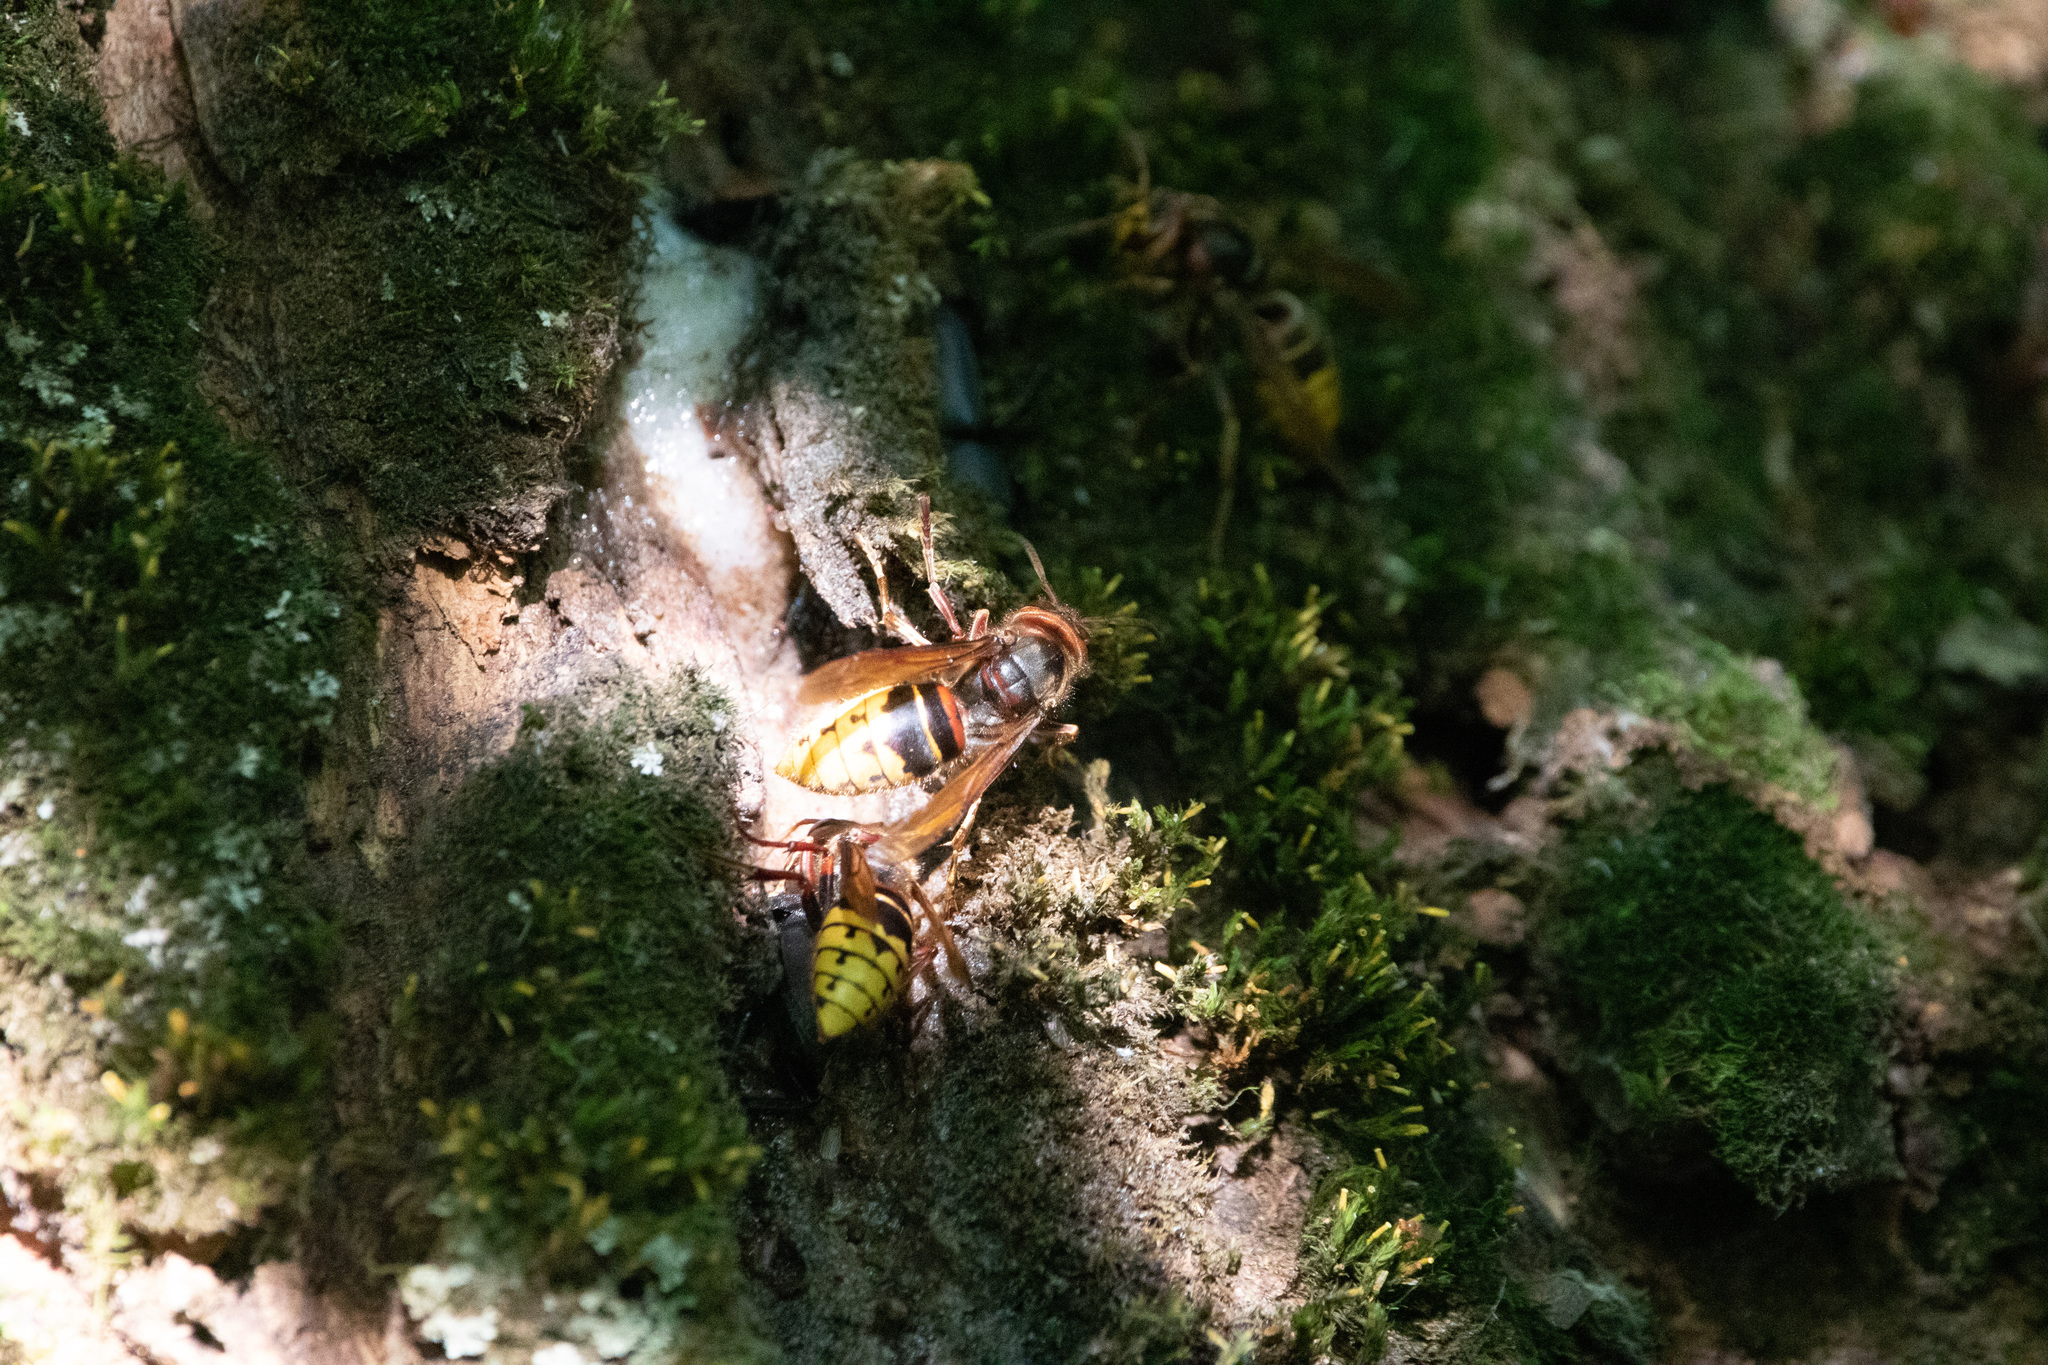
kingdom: Animalia
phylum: Arthropoda
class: Insecta
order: Hymenoptera
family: Vespidae
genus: Vespa
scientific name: Vespa crabro
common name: Hornet
